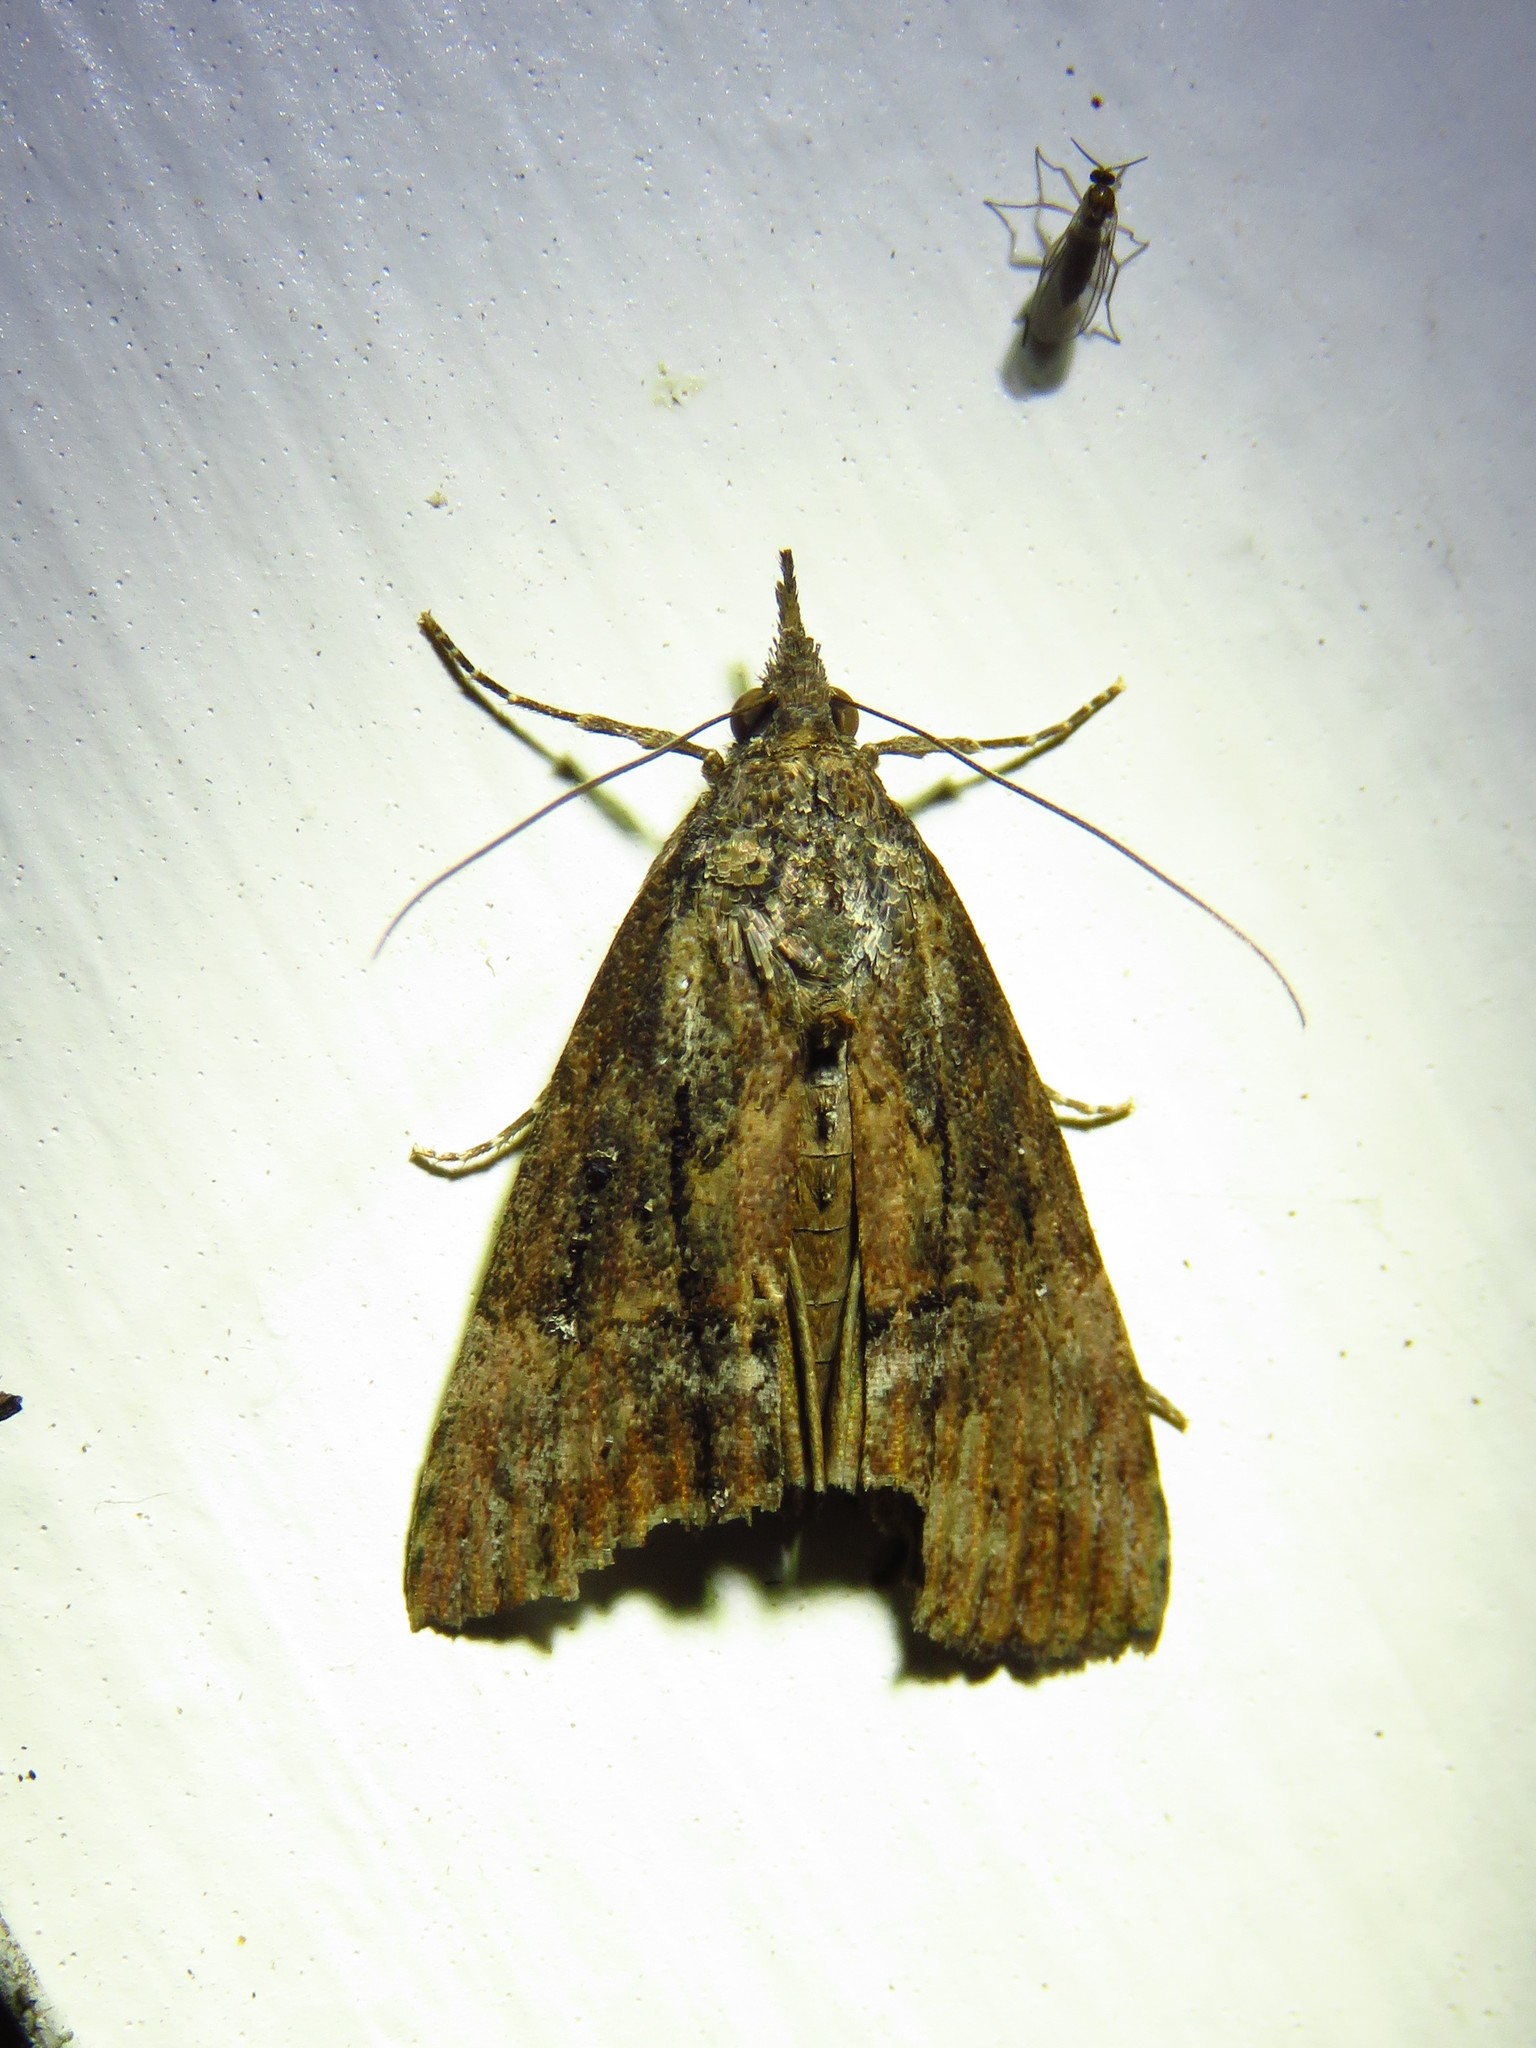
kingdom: Animalia
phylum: Arthropoda
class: Insecta
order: Lepidoptera
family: Erebidae
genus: Hypena
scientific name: Hypena scabra
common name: Green cloverworm
